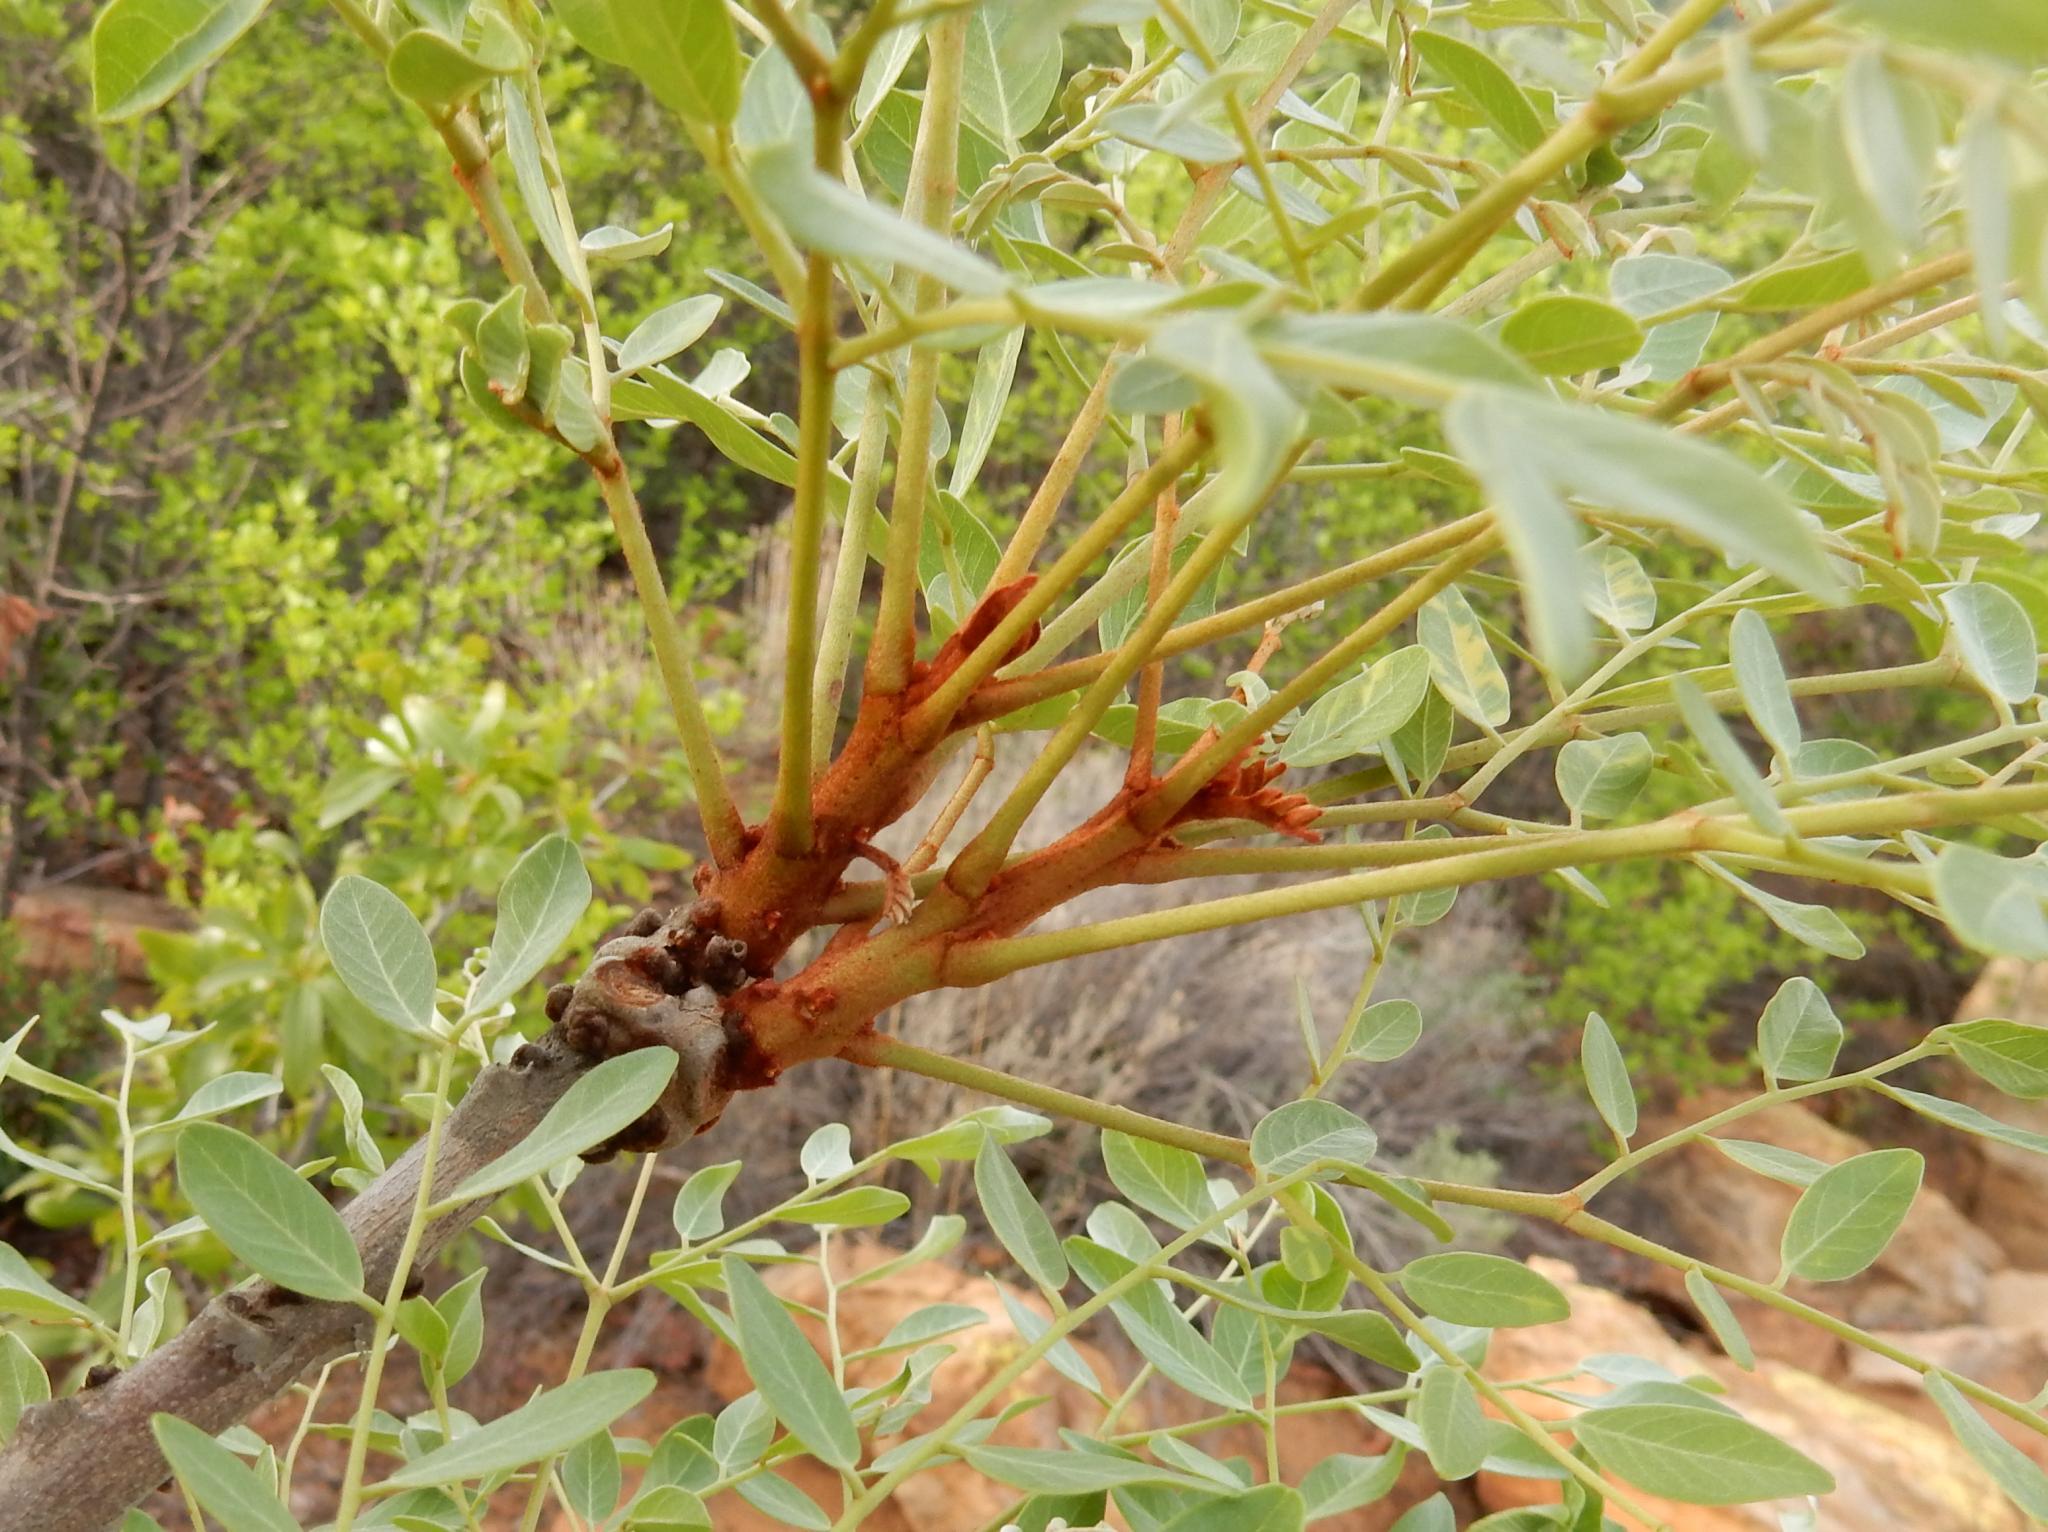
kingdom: Plantae
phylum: Tracheophyta
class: Magnoliopsida
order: Fabales
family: Fabaceae
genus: Burkea
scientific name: Burkea africana
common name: Mkalati tree
